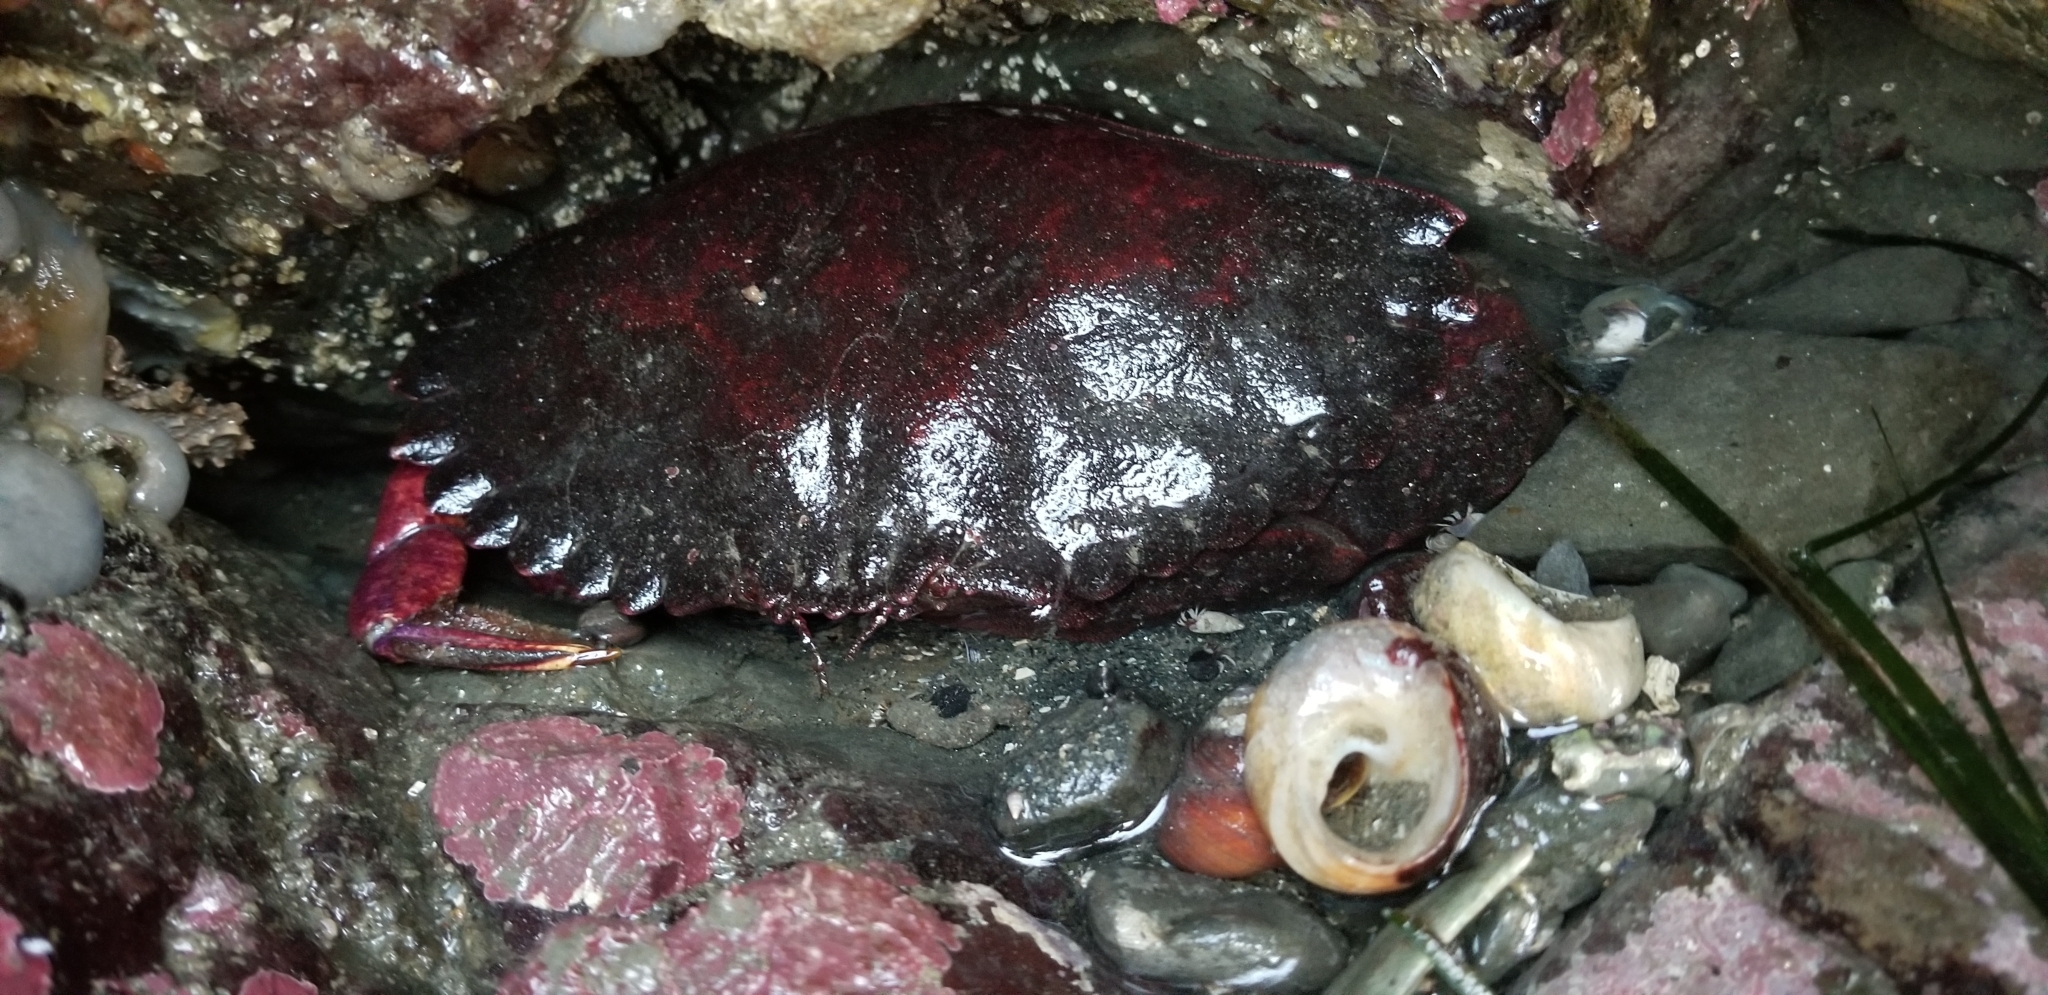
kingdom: Animalia
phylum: Arthropoda
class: Malacostraca
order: Decapoda
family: Cancridae
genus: Cancer
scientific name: Cancer productus
